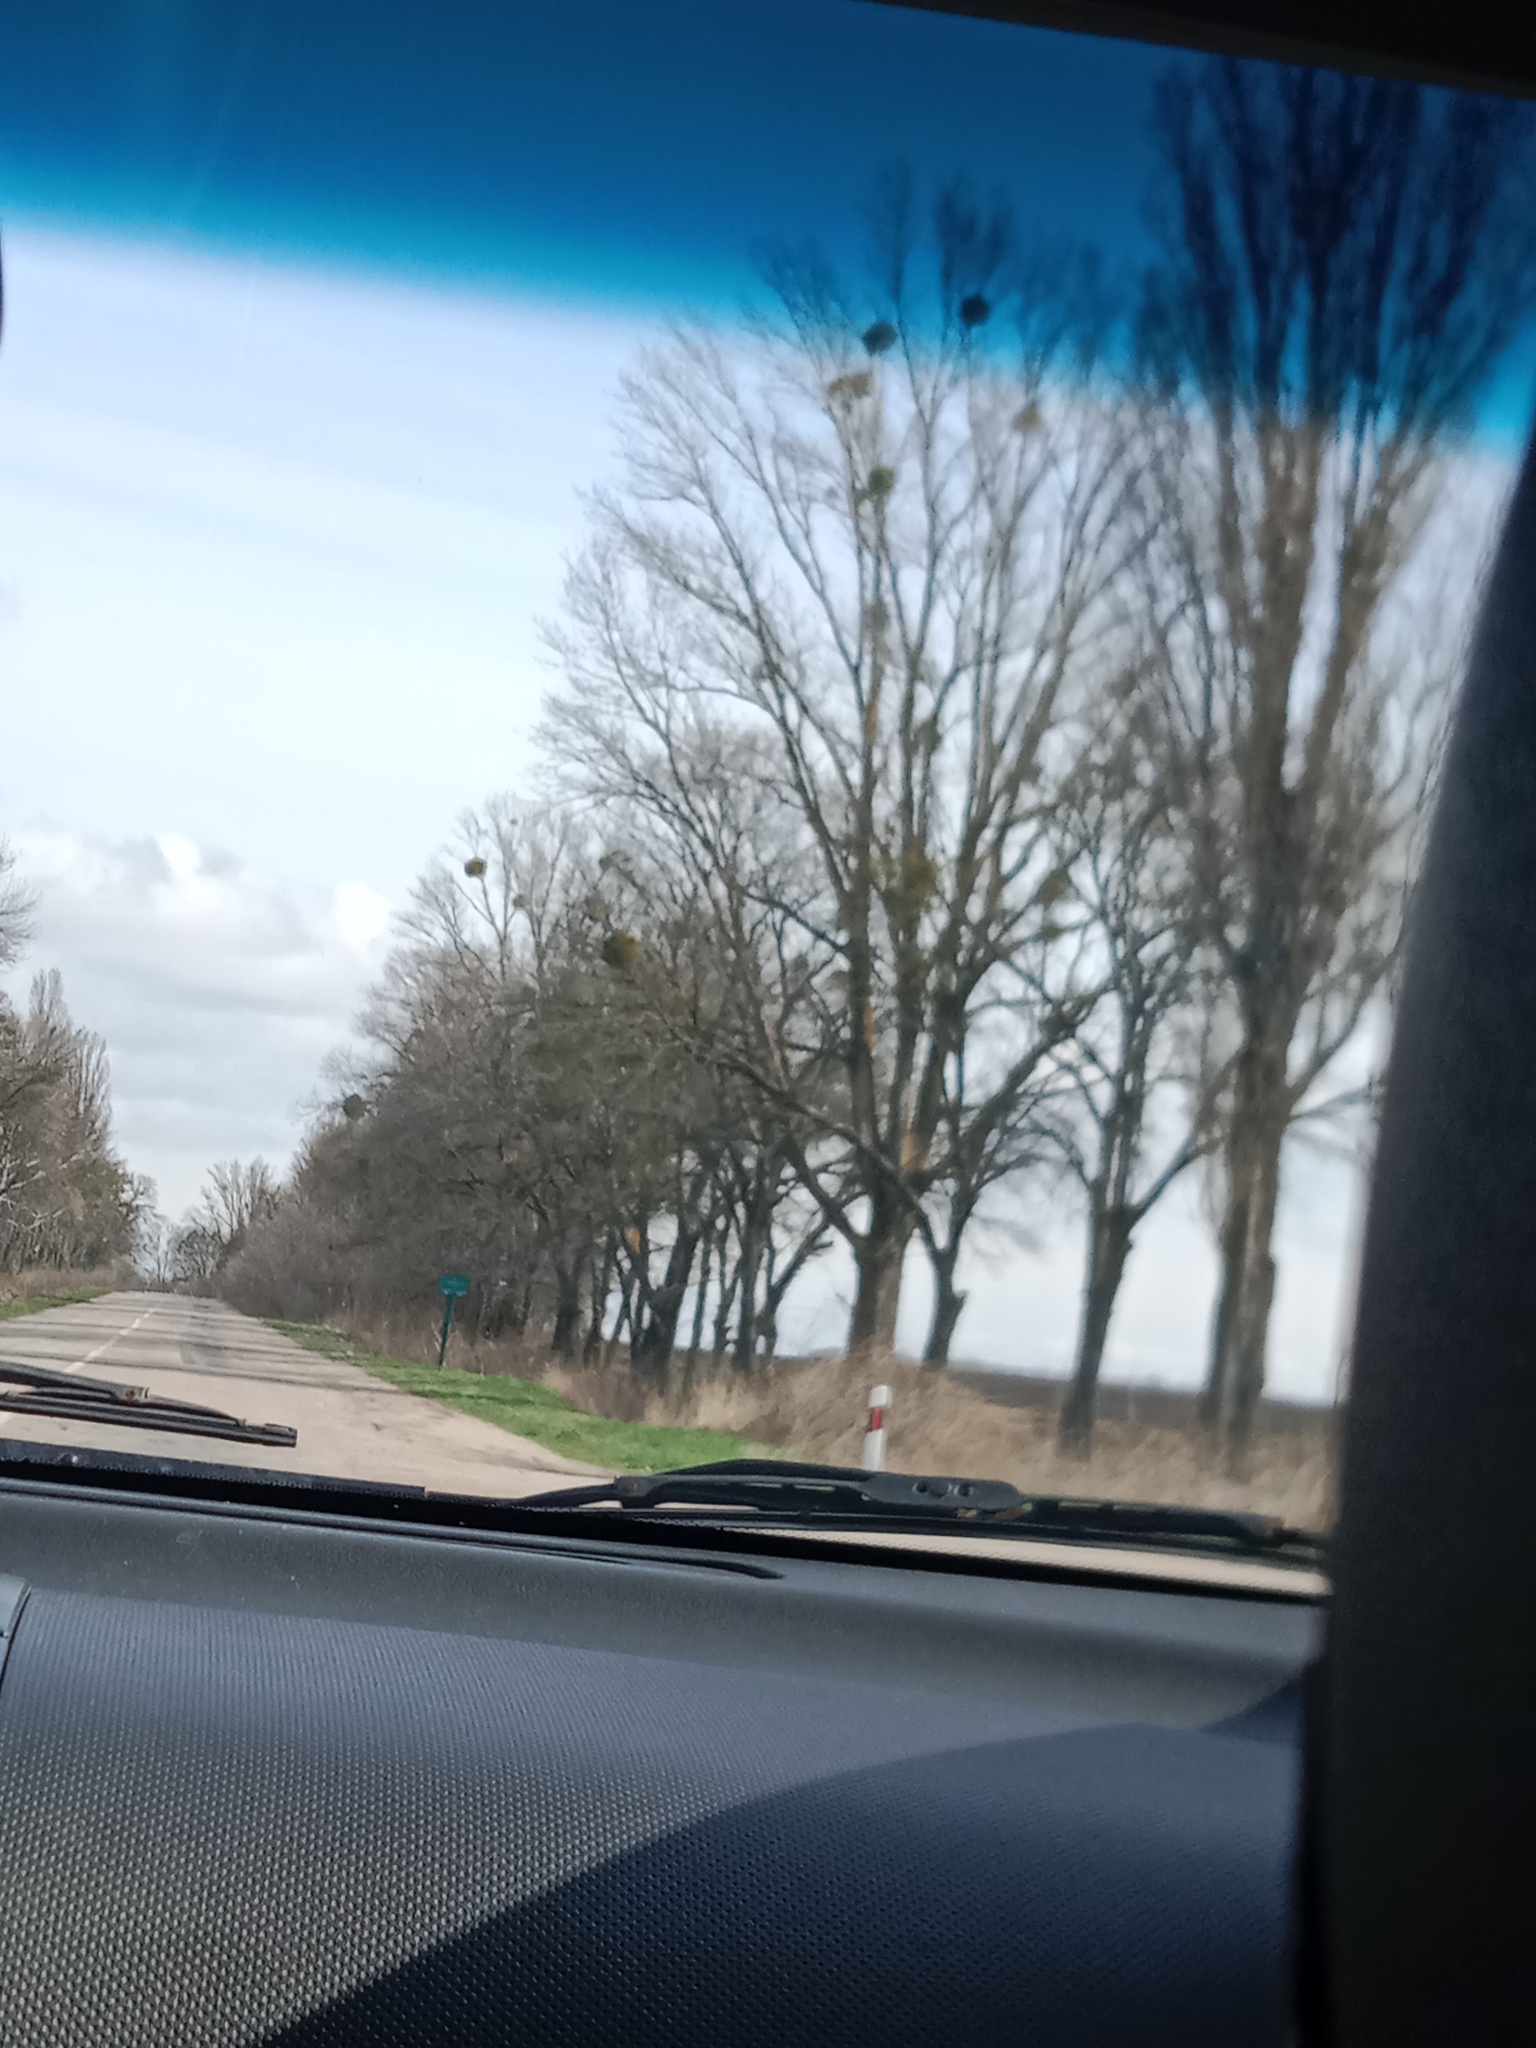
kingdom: Plantae
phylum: Tracheophyta
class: Magnoliopsida
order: Santalales
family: Viscaceae
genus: Viscum
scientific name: Viscum album
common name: Mistletoe
